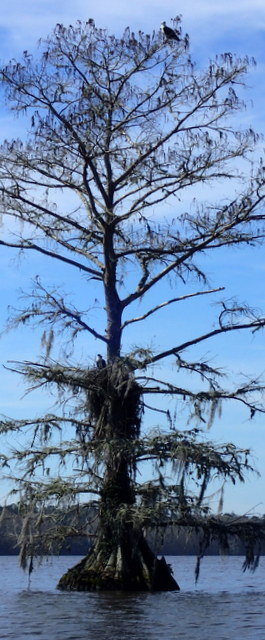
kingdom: Animalia
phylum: Chordata
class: Aves
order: Accipitriformes
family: Pandionidae
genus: Pandion
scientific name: Pandion haliaetus
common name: Osprey
